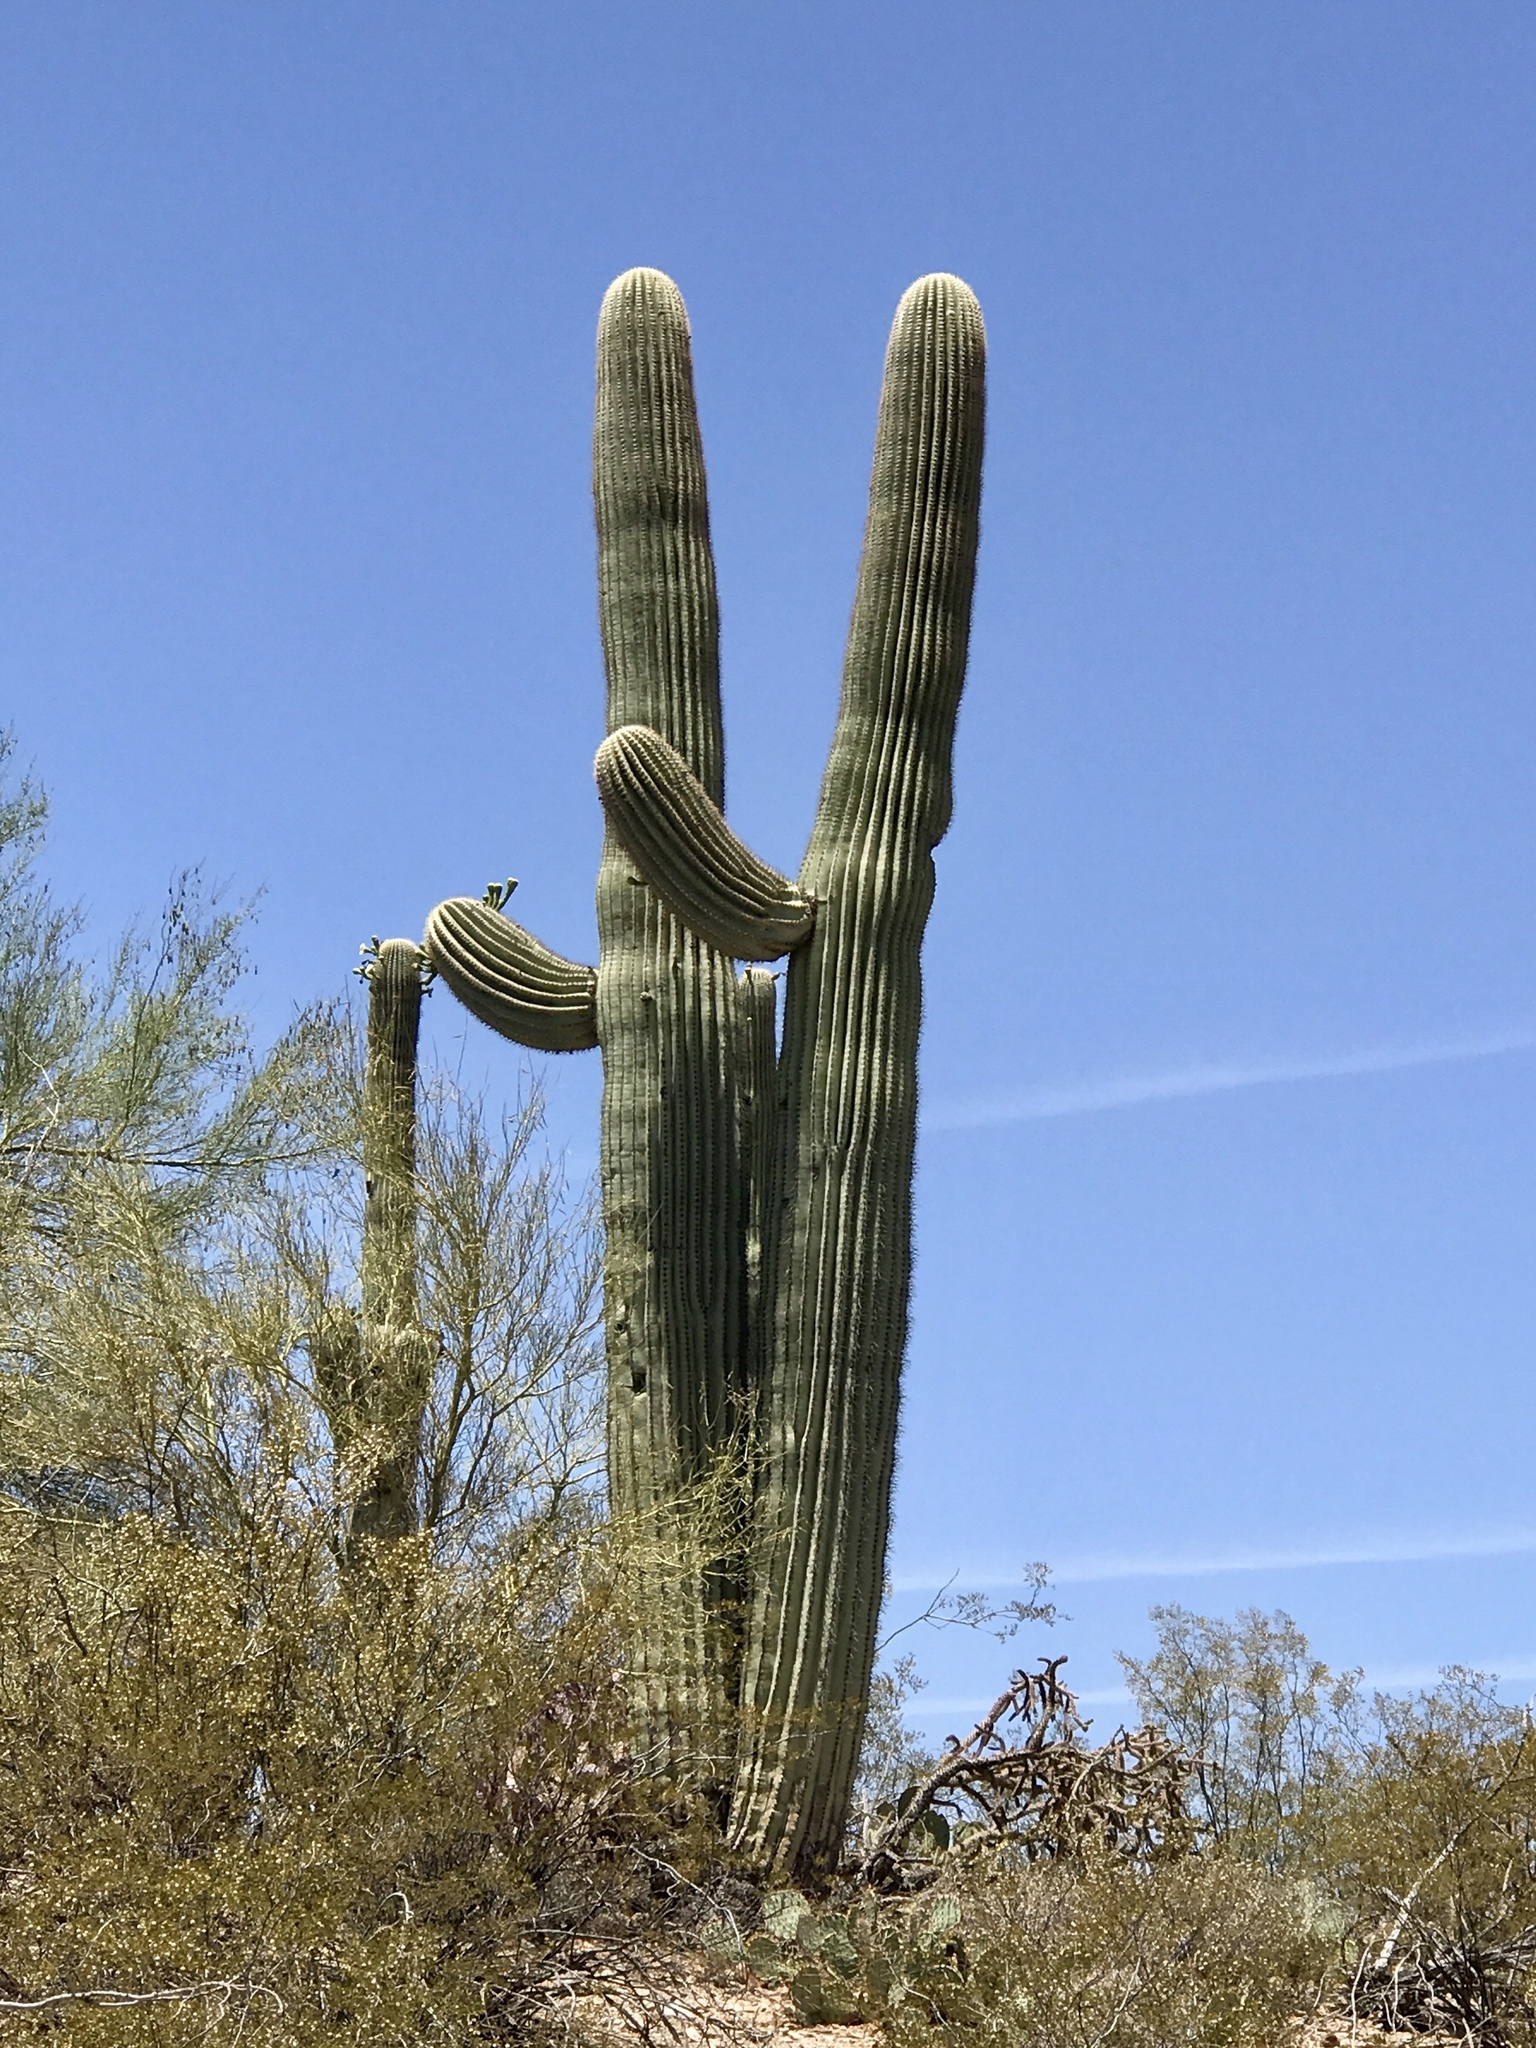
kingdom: Plantae
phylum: Tracheophyta
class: Magnoliopsida
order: Caryophyllales
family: Cactaceae
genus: Carnegiea
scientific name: Carnegiea gigantea
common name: Saguaro
